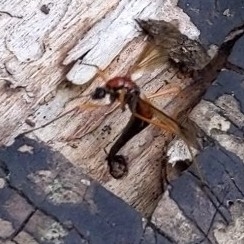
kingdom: Animalia
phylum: Arthropoda
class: Insecta
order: Diptera
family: Tipulidae
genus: Tanyptera
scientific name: Tanyptera dorsalis
